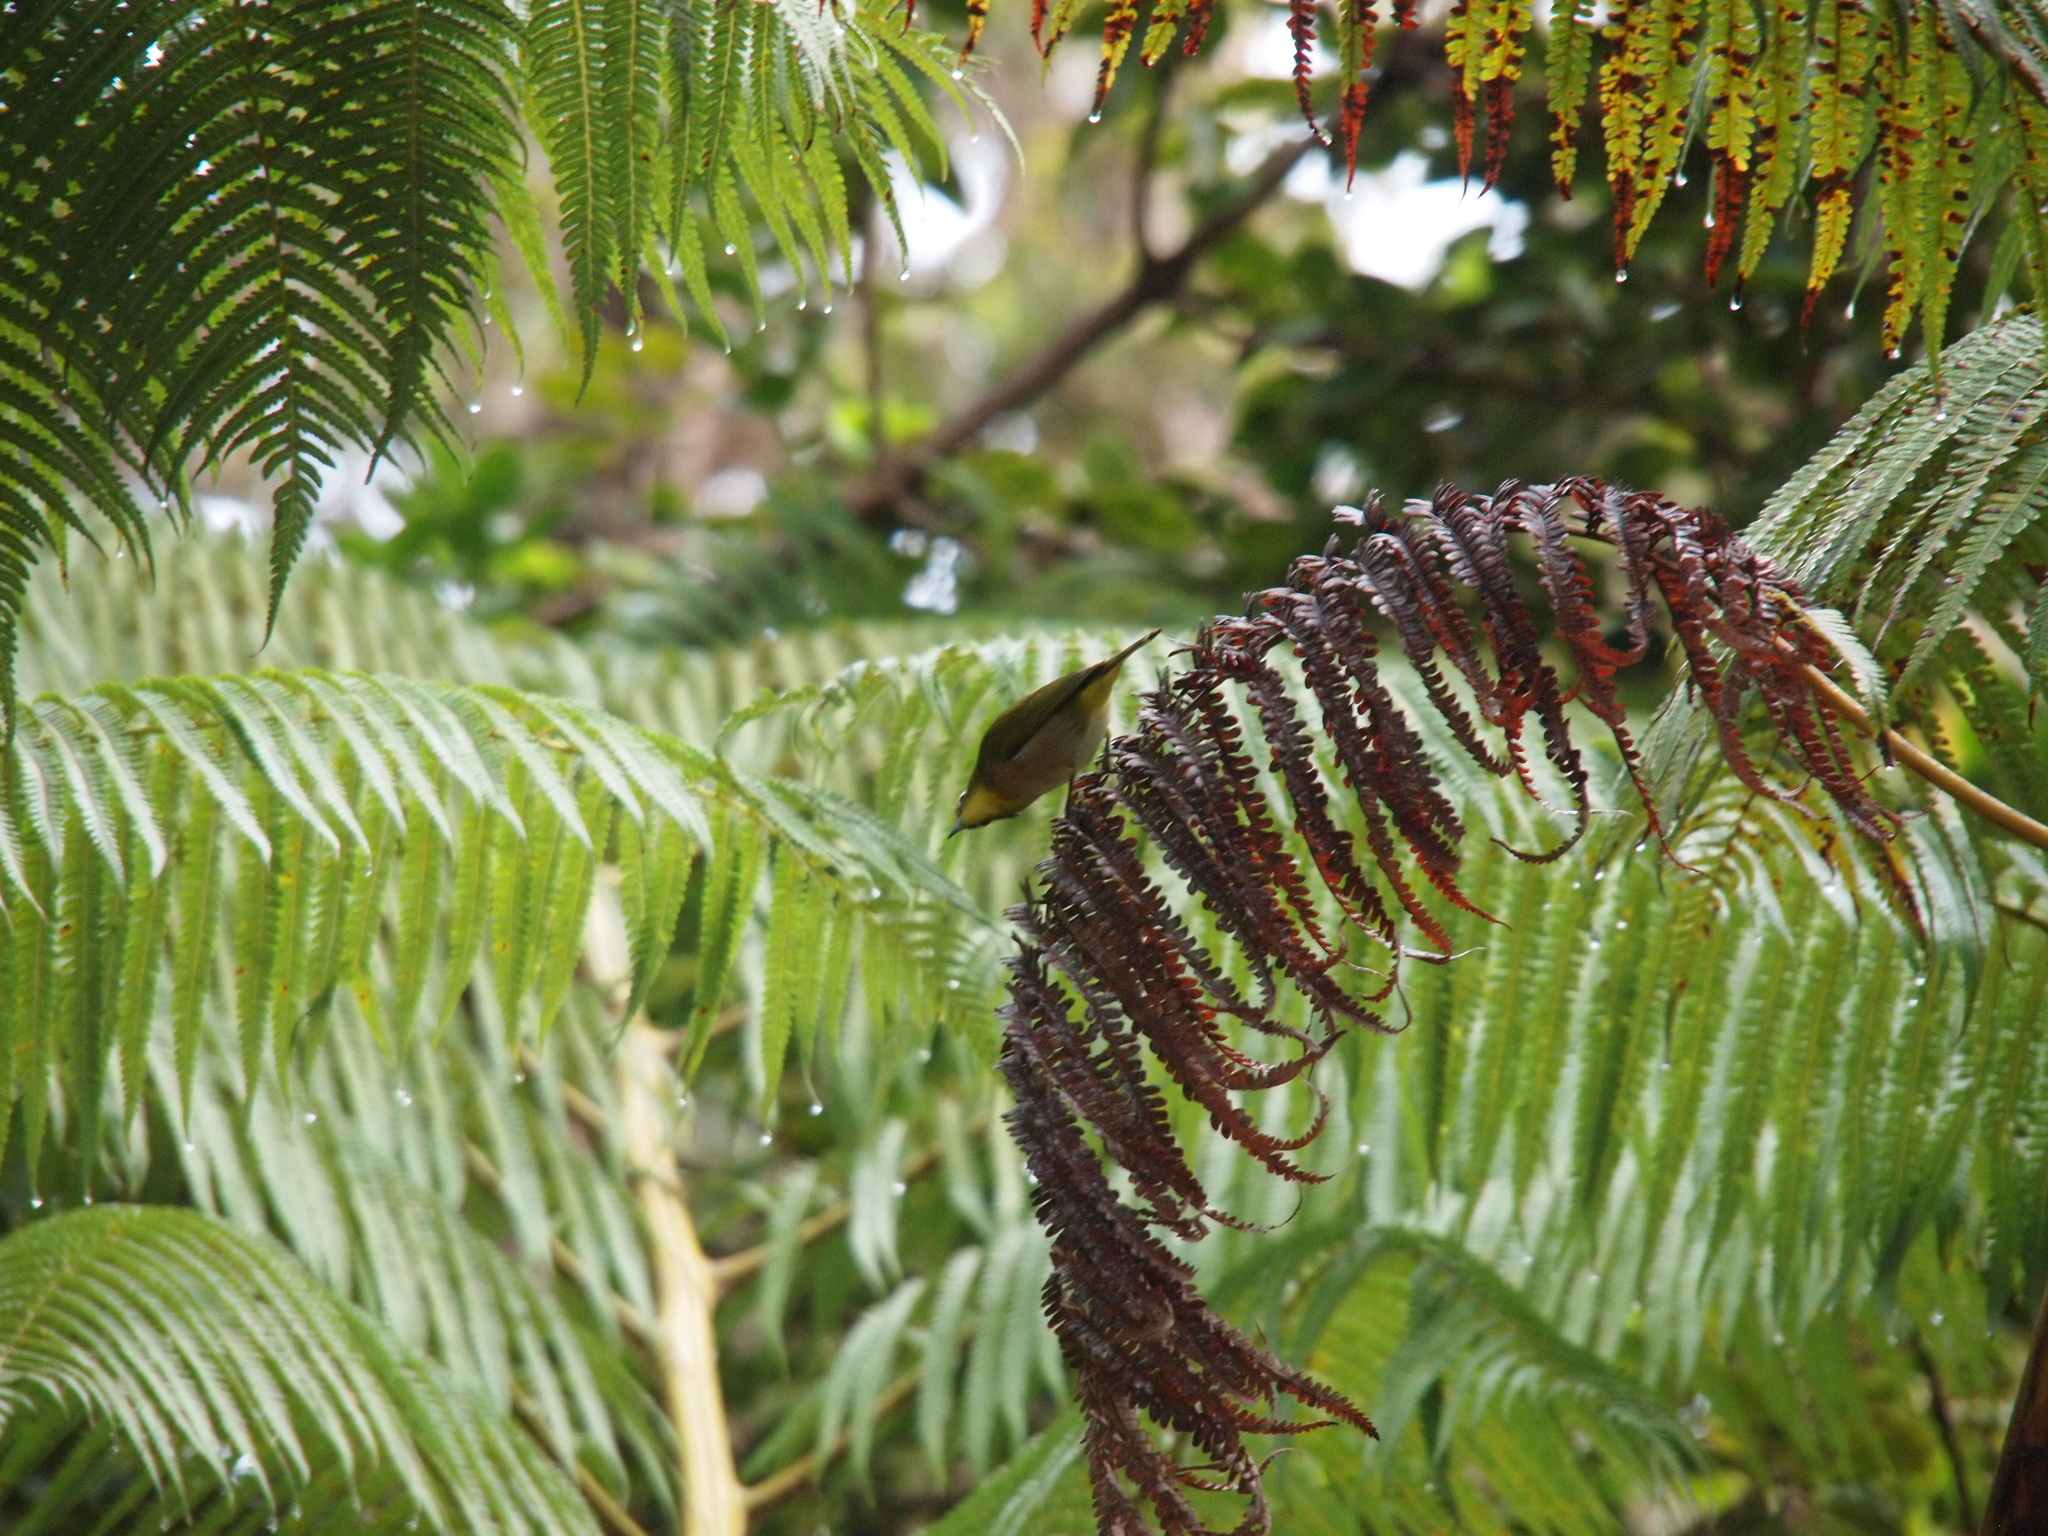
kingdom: Animalia
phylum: Chordata
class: Aves
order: Passeriformes
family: Zosteropidae
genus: Zosterops
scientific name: Zosterops japonicus
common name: Japanese white-eye
